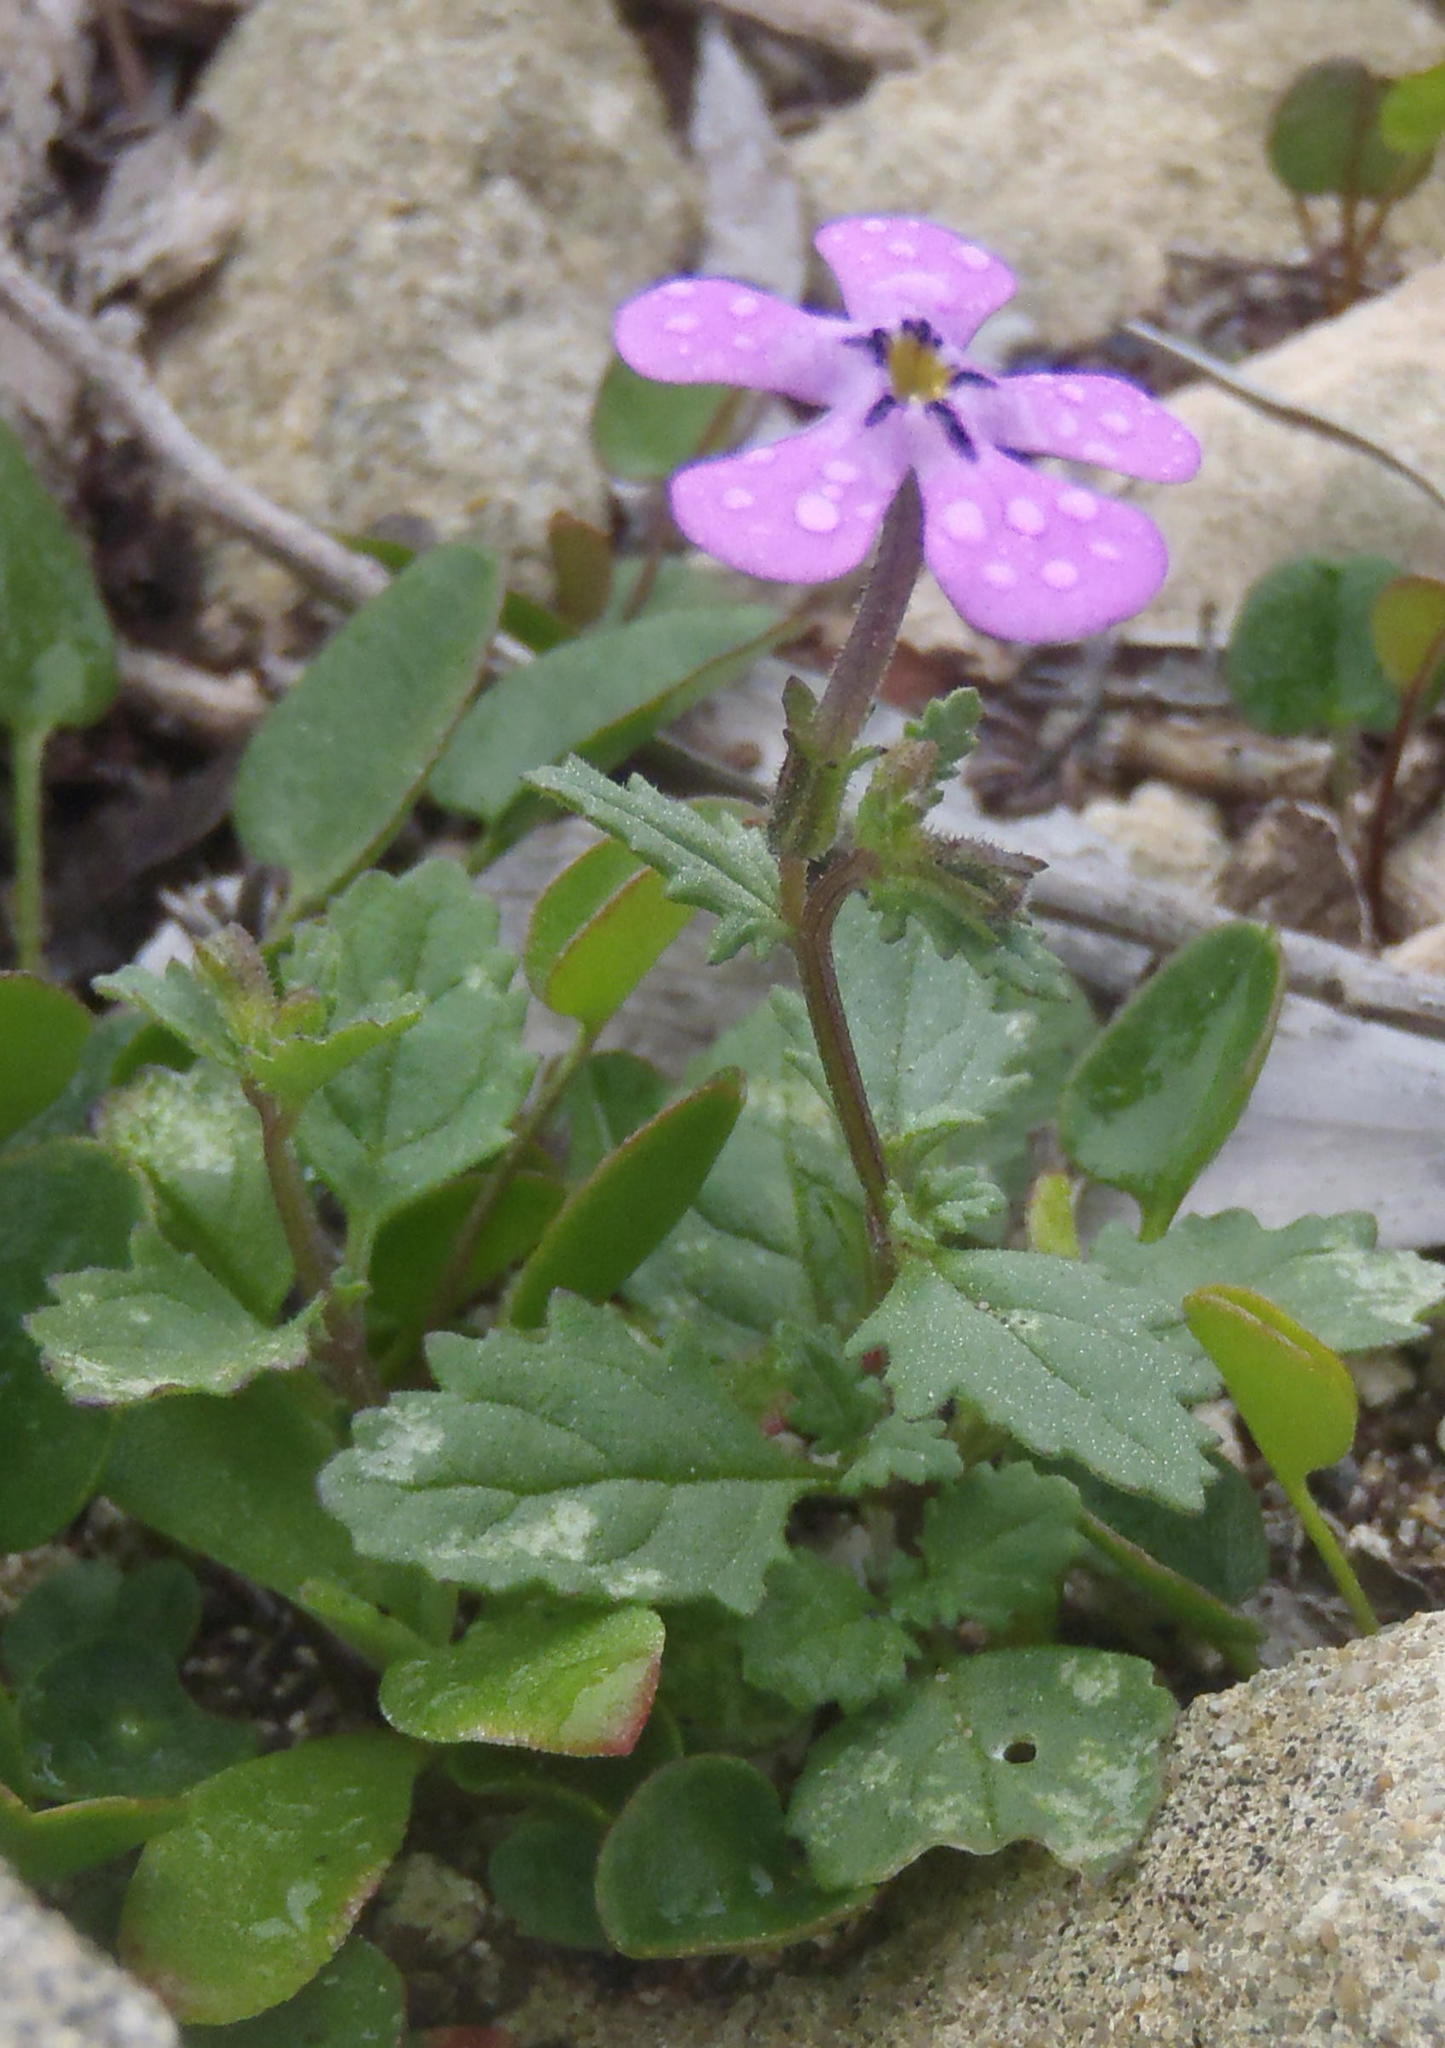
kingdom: Plantae
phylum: Tracheophyta
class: Magnoliopsida
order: Lamiales
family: Scrophulariaceae
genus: Lyperia
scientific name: Lyperia violacea
